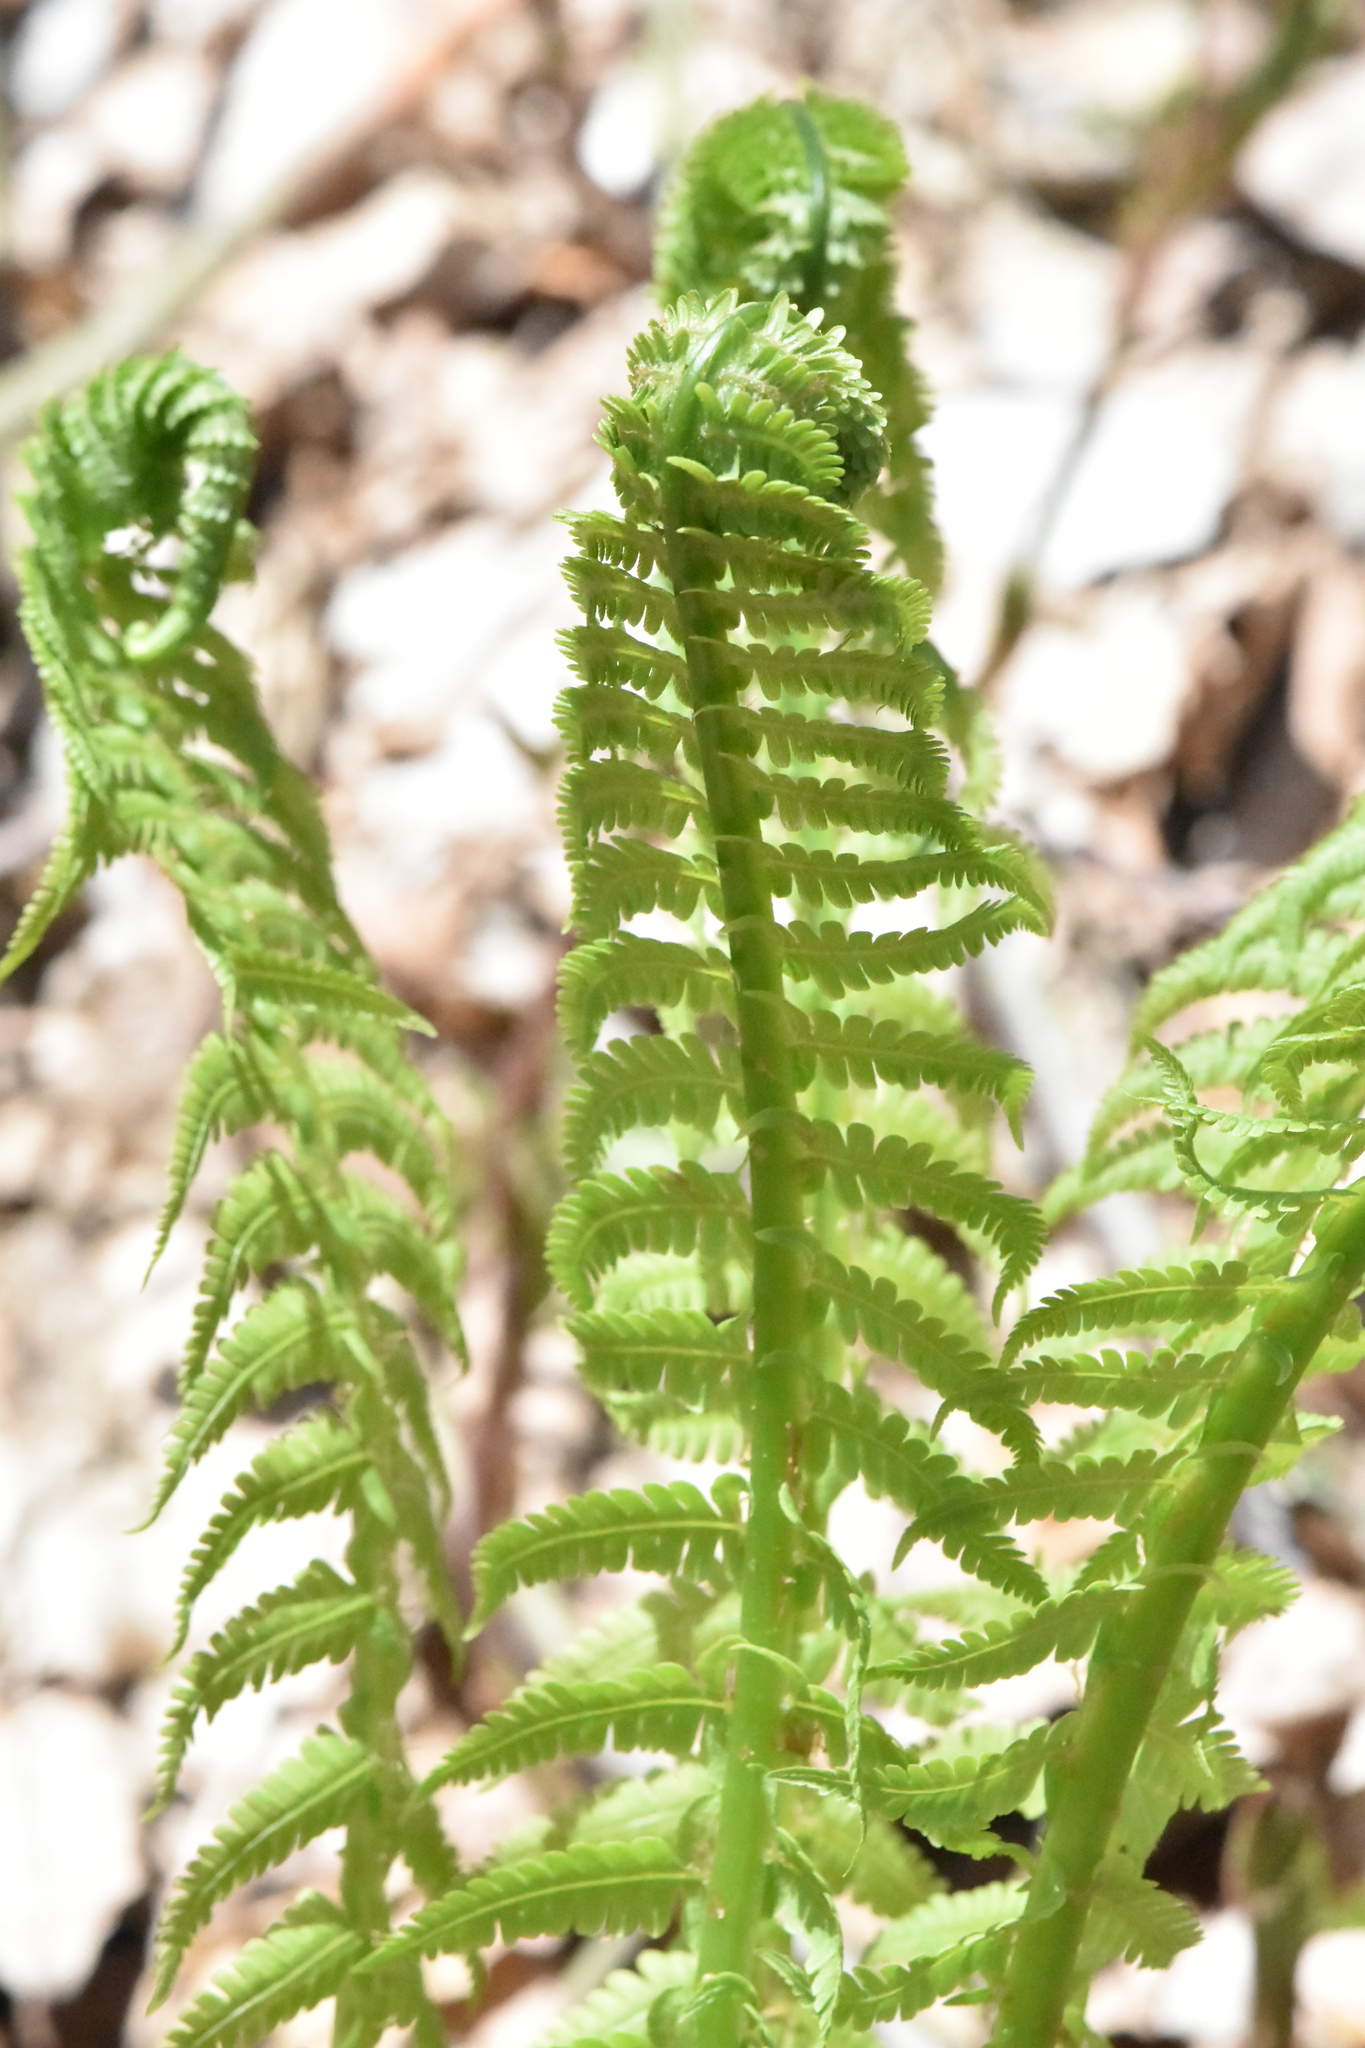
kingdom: Plantae
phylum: Tracheophyta
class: Polypodiopsida
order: Polypodiales
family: Onocleaceae
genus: Matteuccia
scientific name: Matteuccia struthiopteris
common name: Ostrich fern
